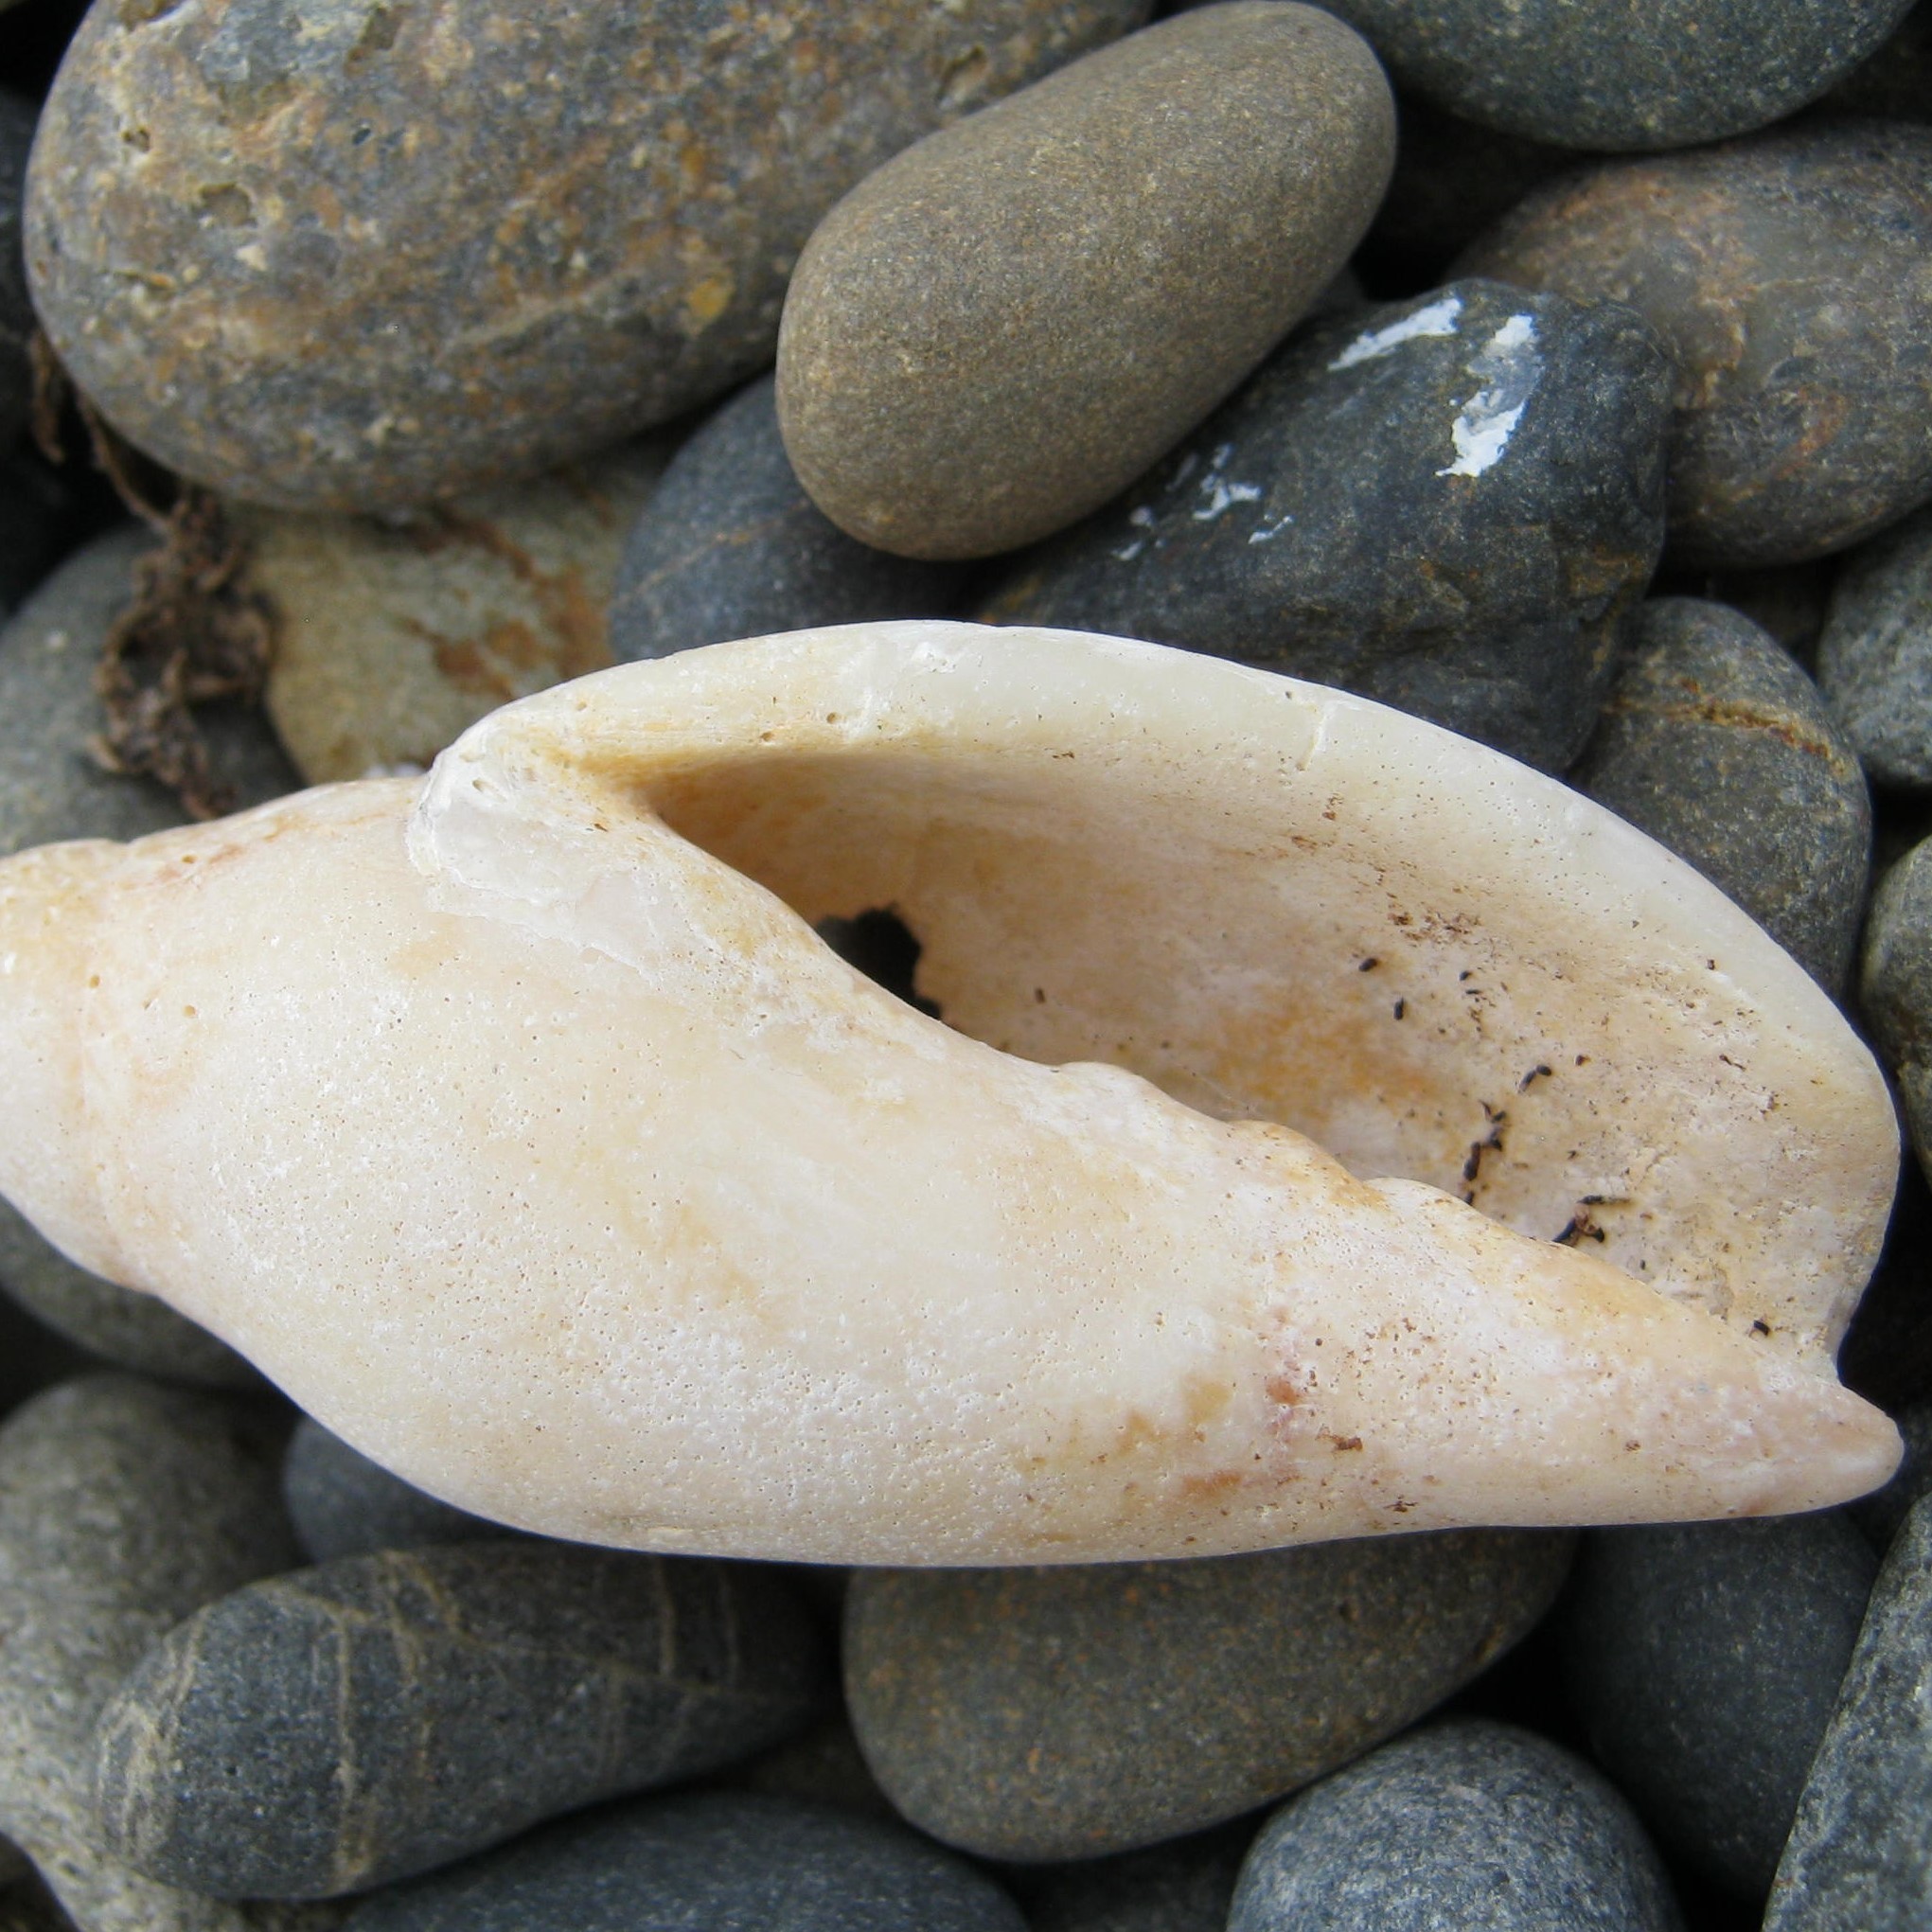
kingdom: Animalia
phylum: Mollusca
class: Gastropoda
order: Neogastropoda
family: Volutidae
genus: Alcithoe
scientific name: Alcithoe fusus
